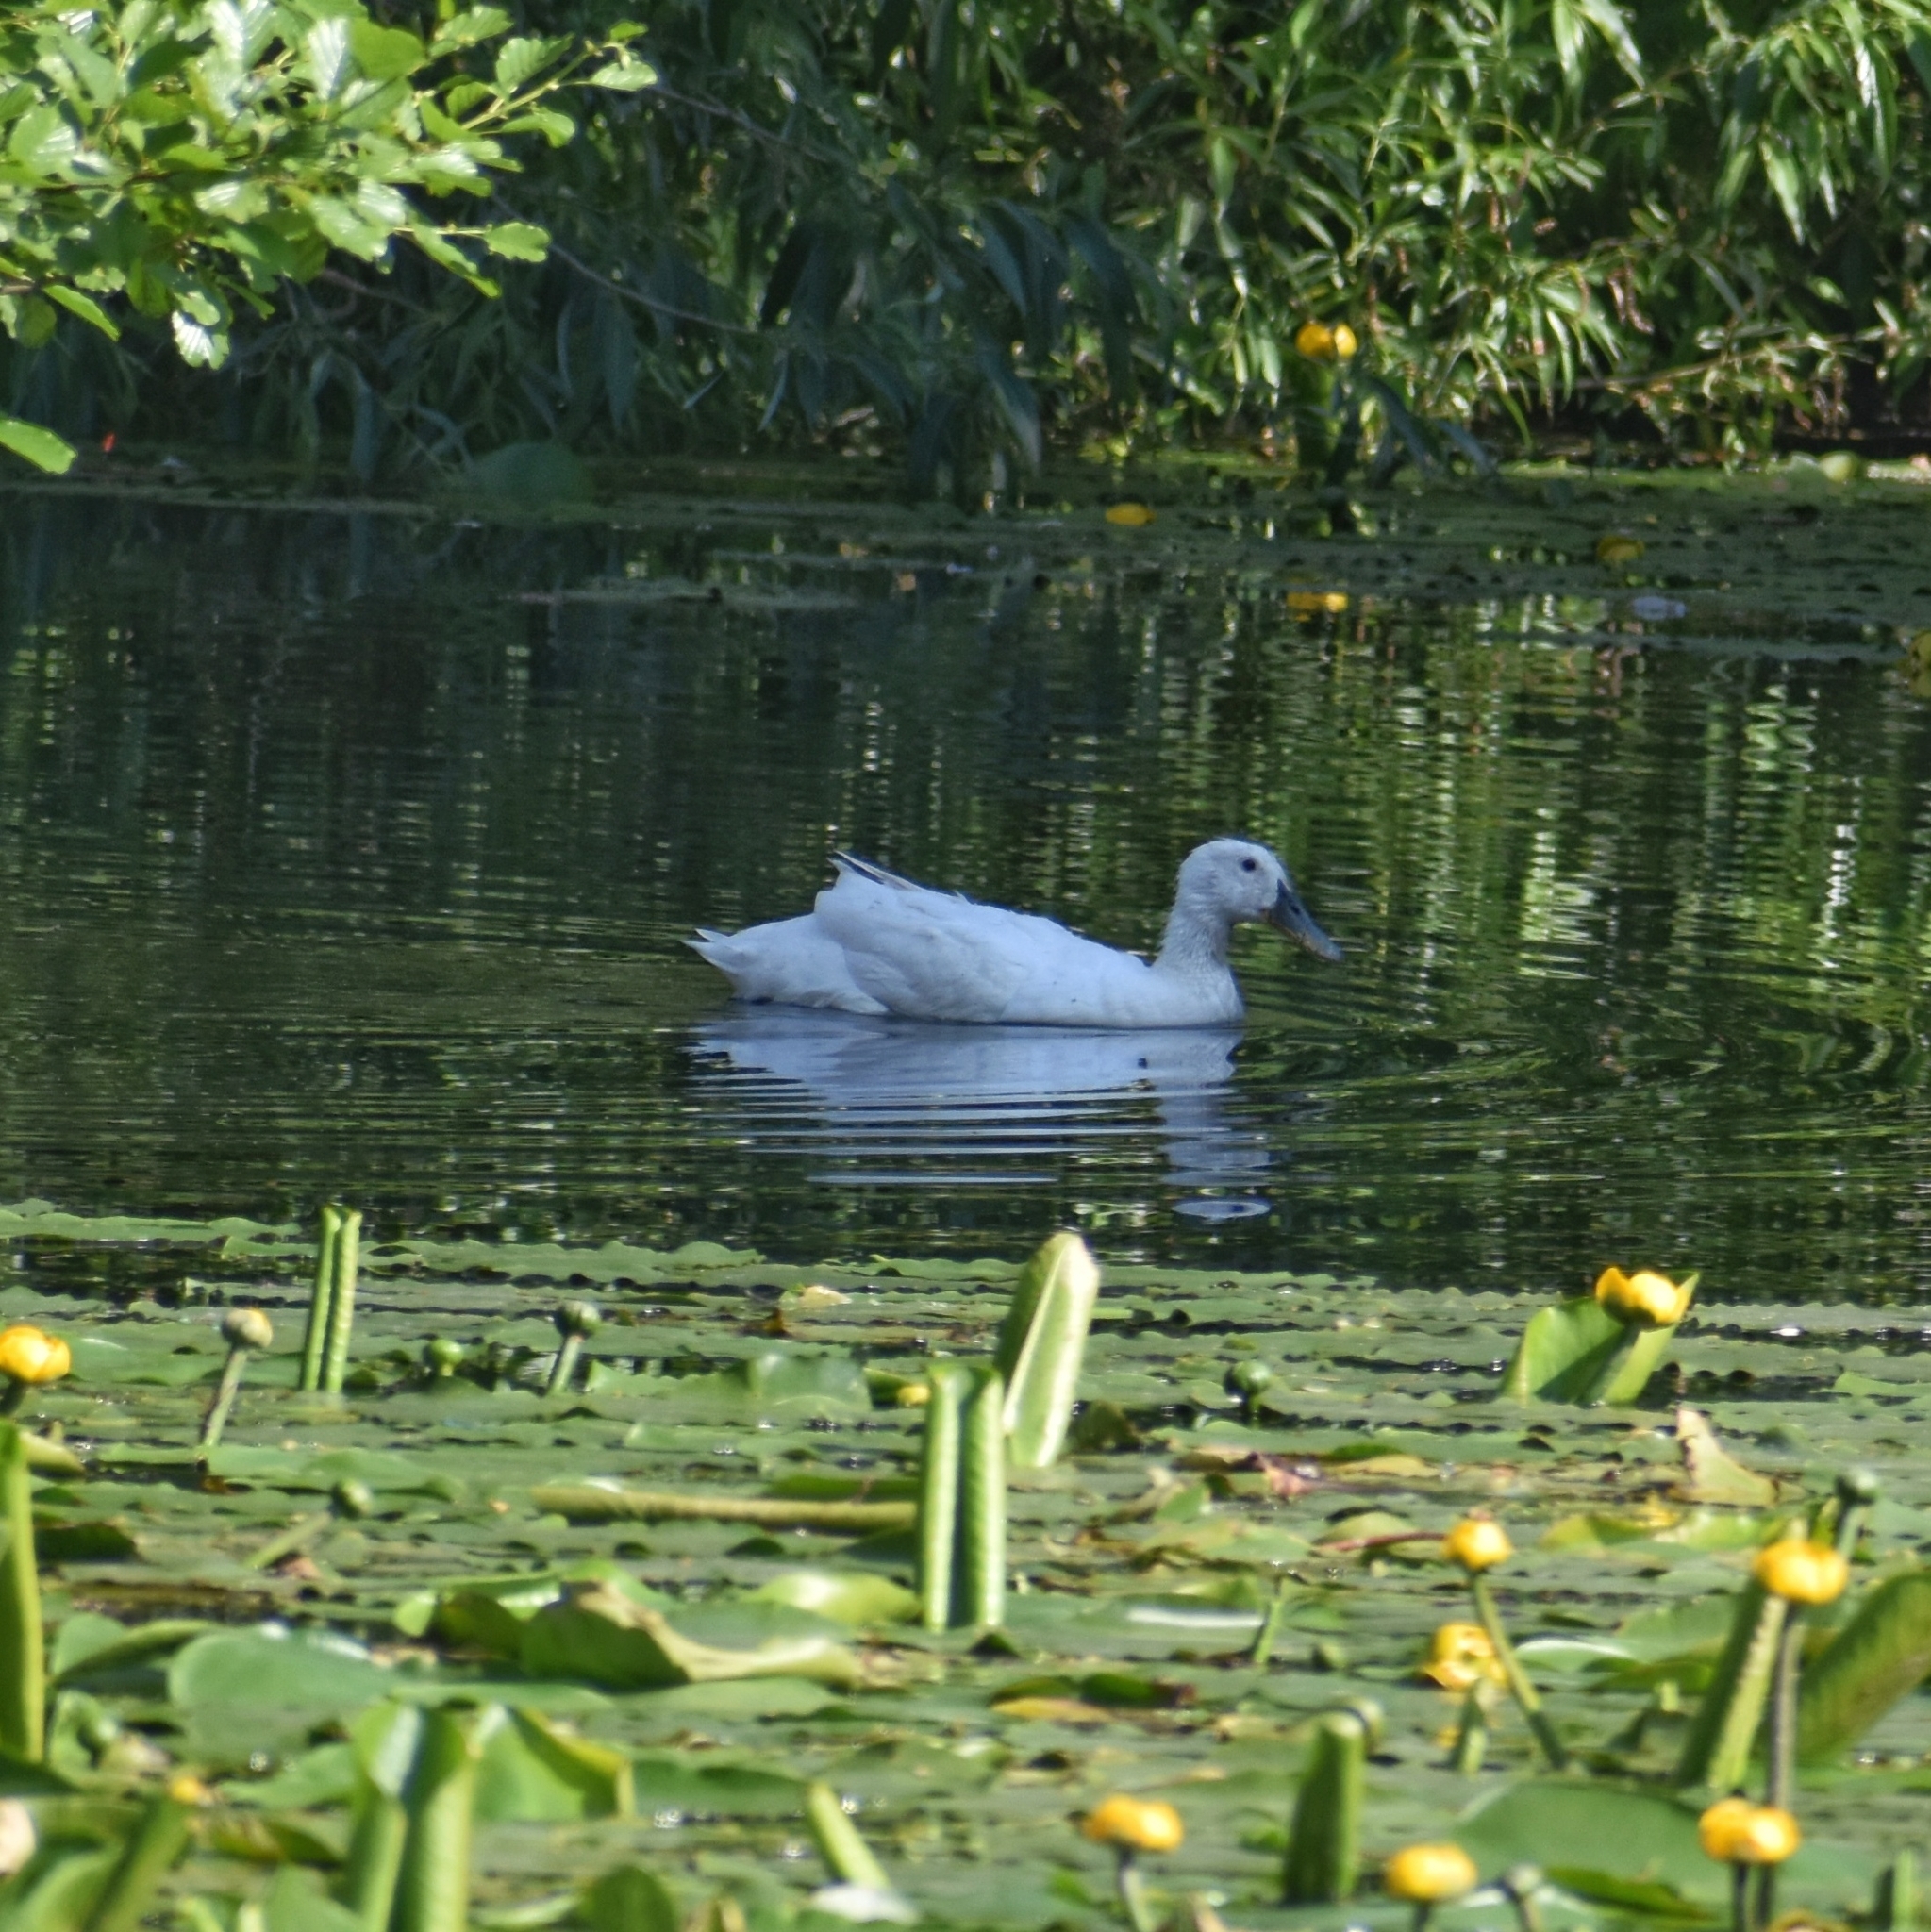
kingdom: Animalia
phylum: Chordata
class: Aves
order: Anseriformes
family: Anatidae
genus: Anas
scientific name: Anas platyrhynchos
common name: Mallard
